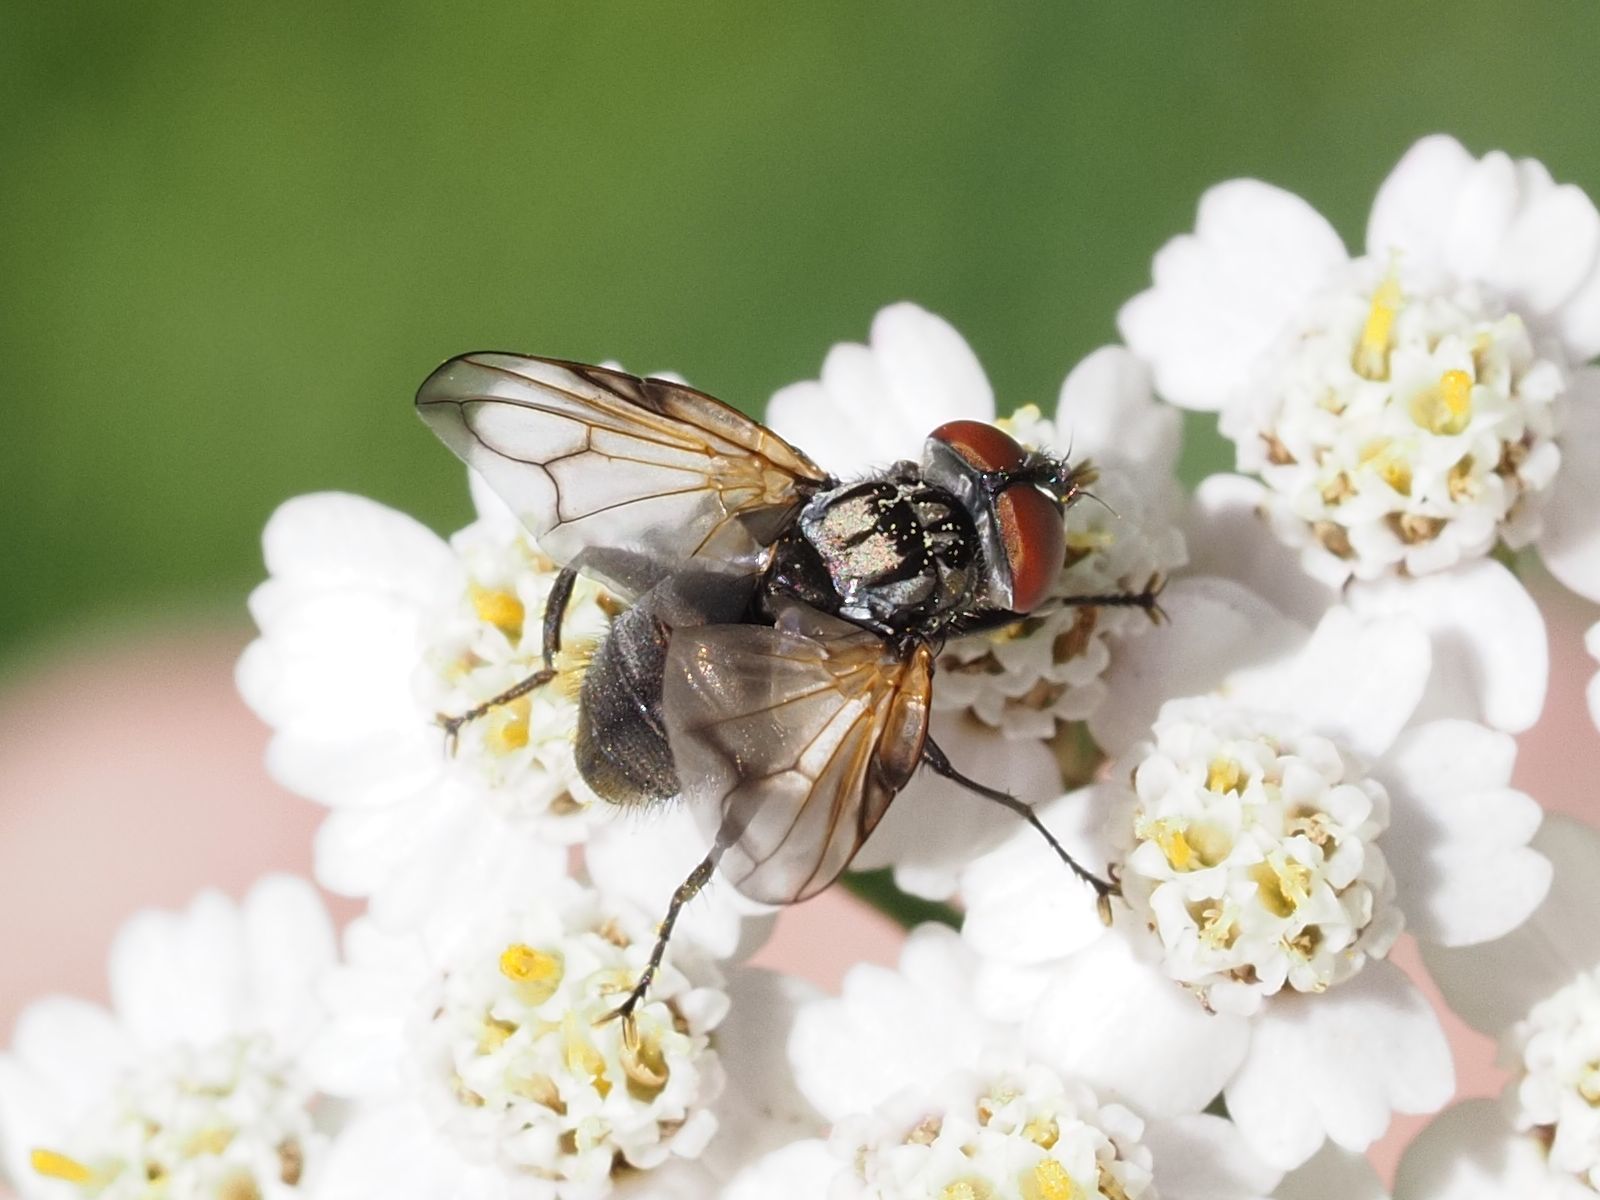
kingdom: Animalia
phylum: Arthropoda
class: Insecta
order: Diptera
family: Tachinidae
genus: Phasia
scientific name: Phasia obesa
